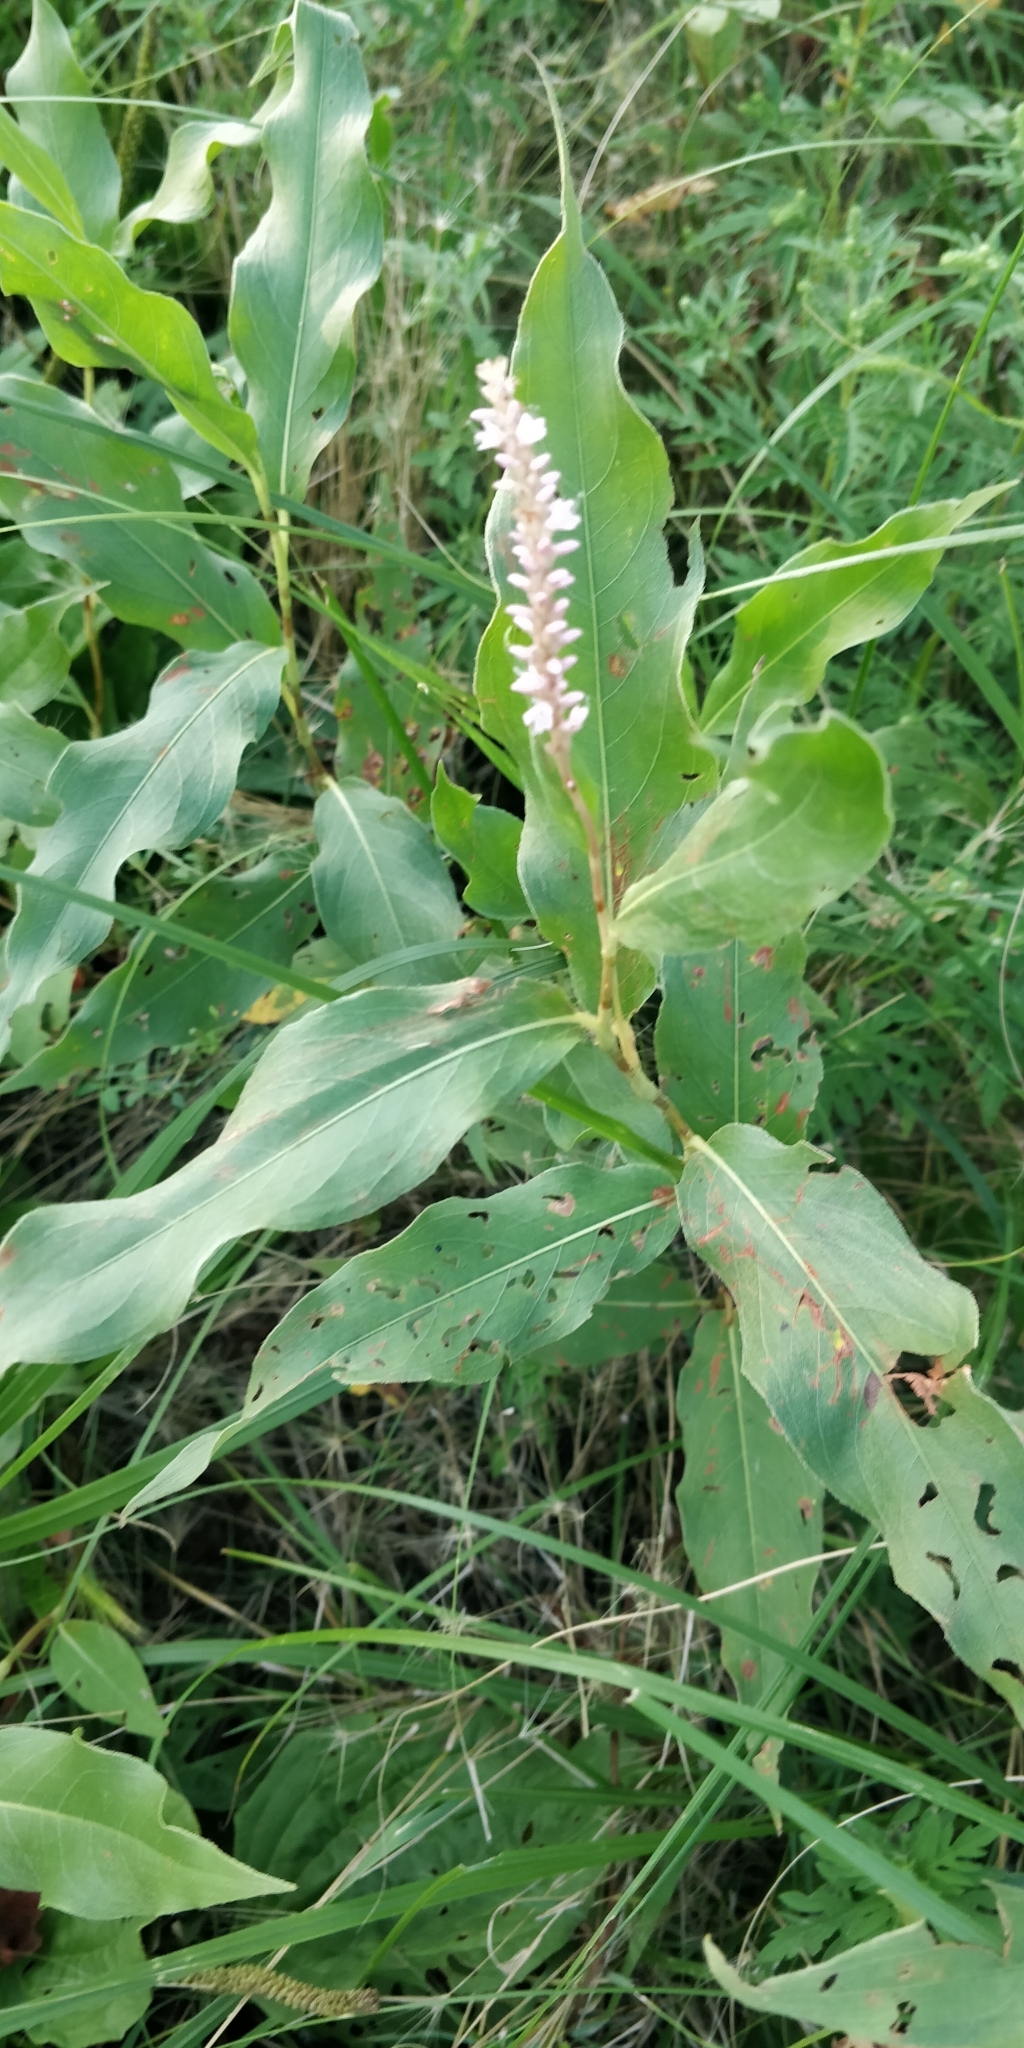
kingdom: Plantae
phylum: Tracheophyta
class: Magnoliopsida
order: Caryophyllales
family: Polygonaceae
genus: Persicaria
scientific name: Persicaria amphibia
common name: Amphibious bistort
